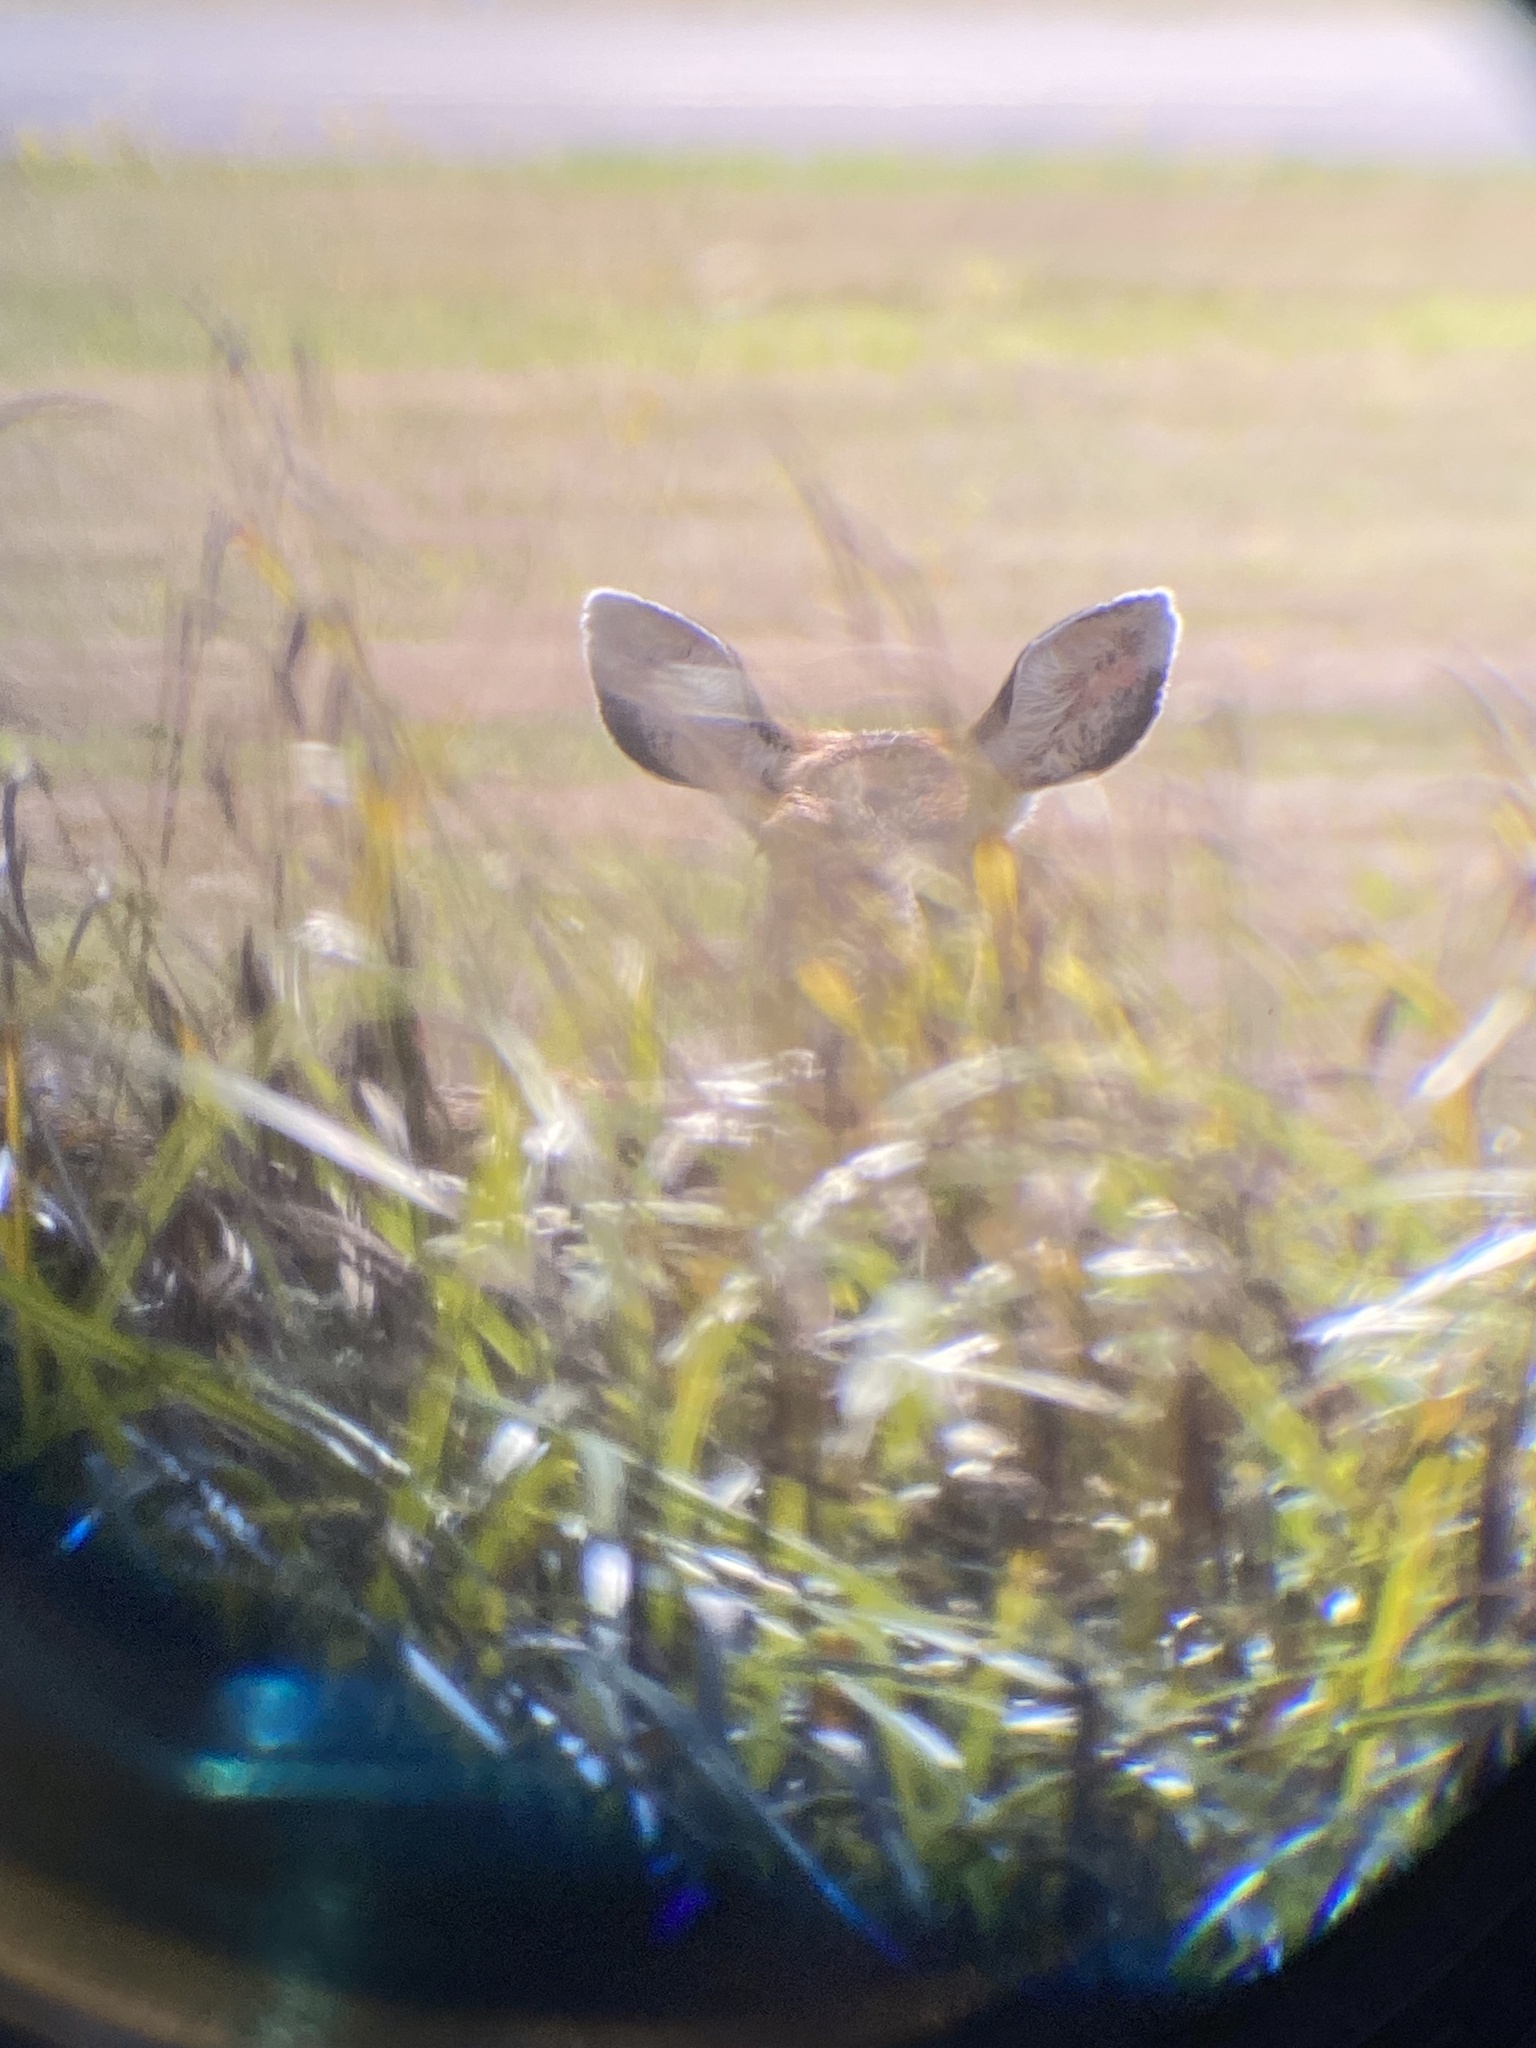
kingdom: Animalia
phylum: Chordata
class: Mammalia
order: Artiodactyla
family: Cervidae
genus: Odocoileus
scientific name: Odocoileus hemionus
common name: Mule deer
